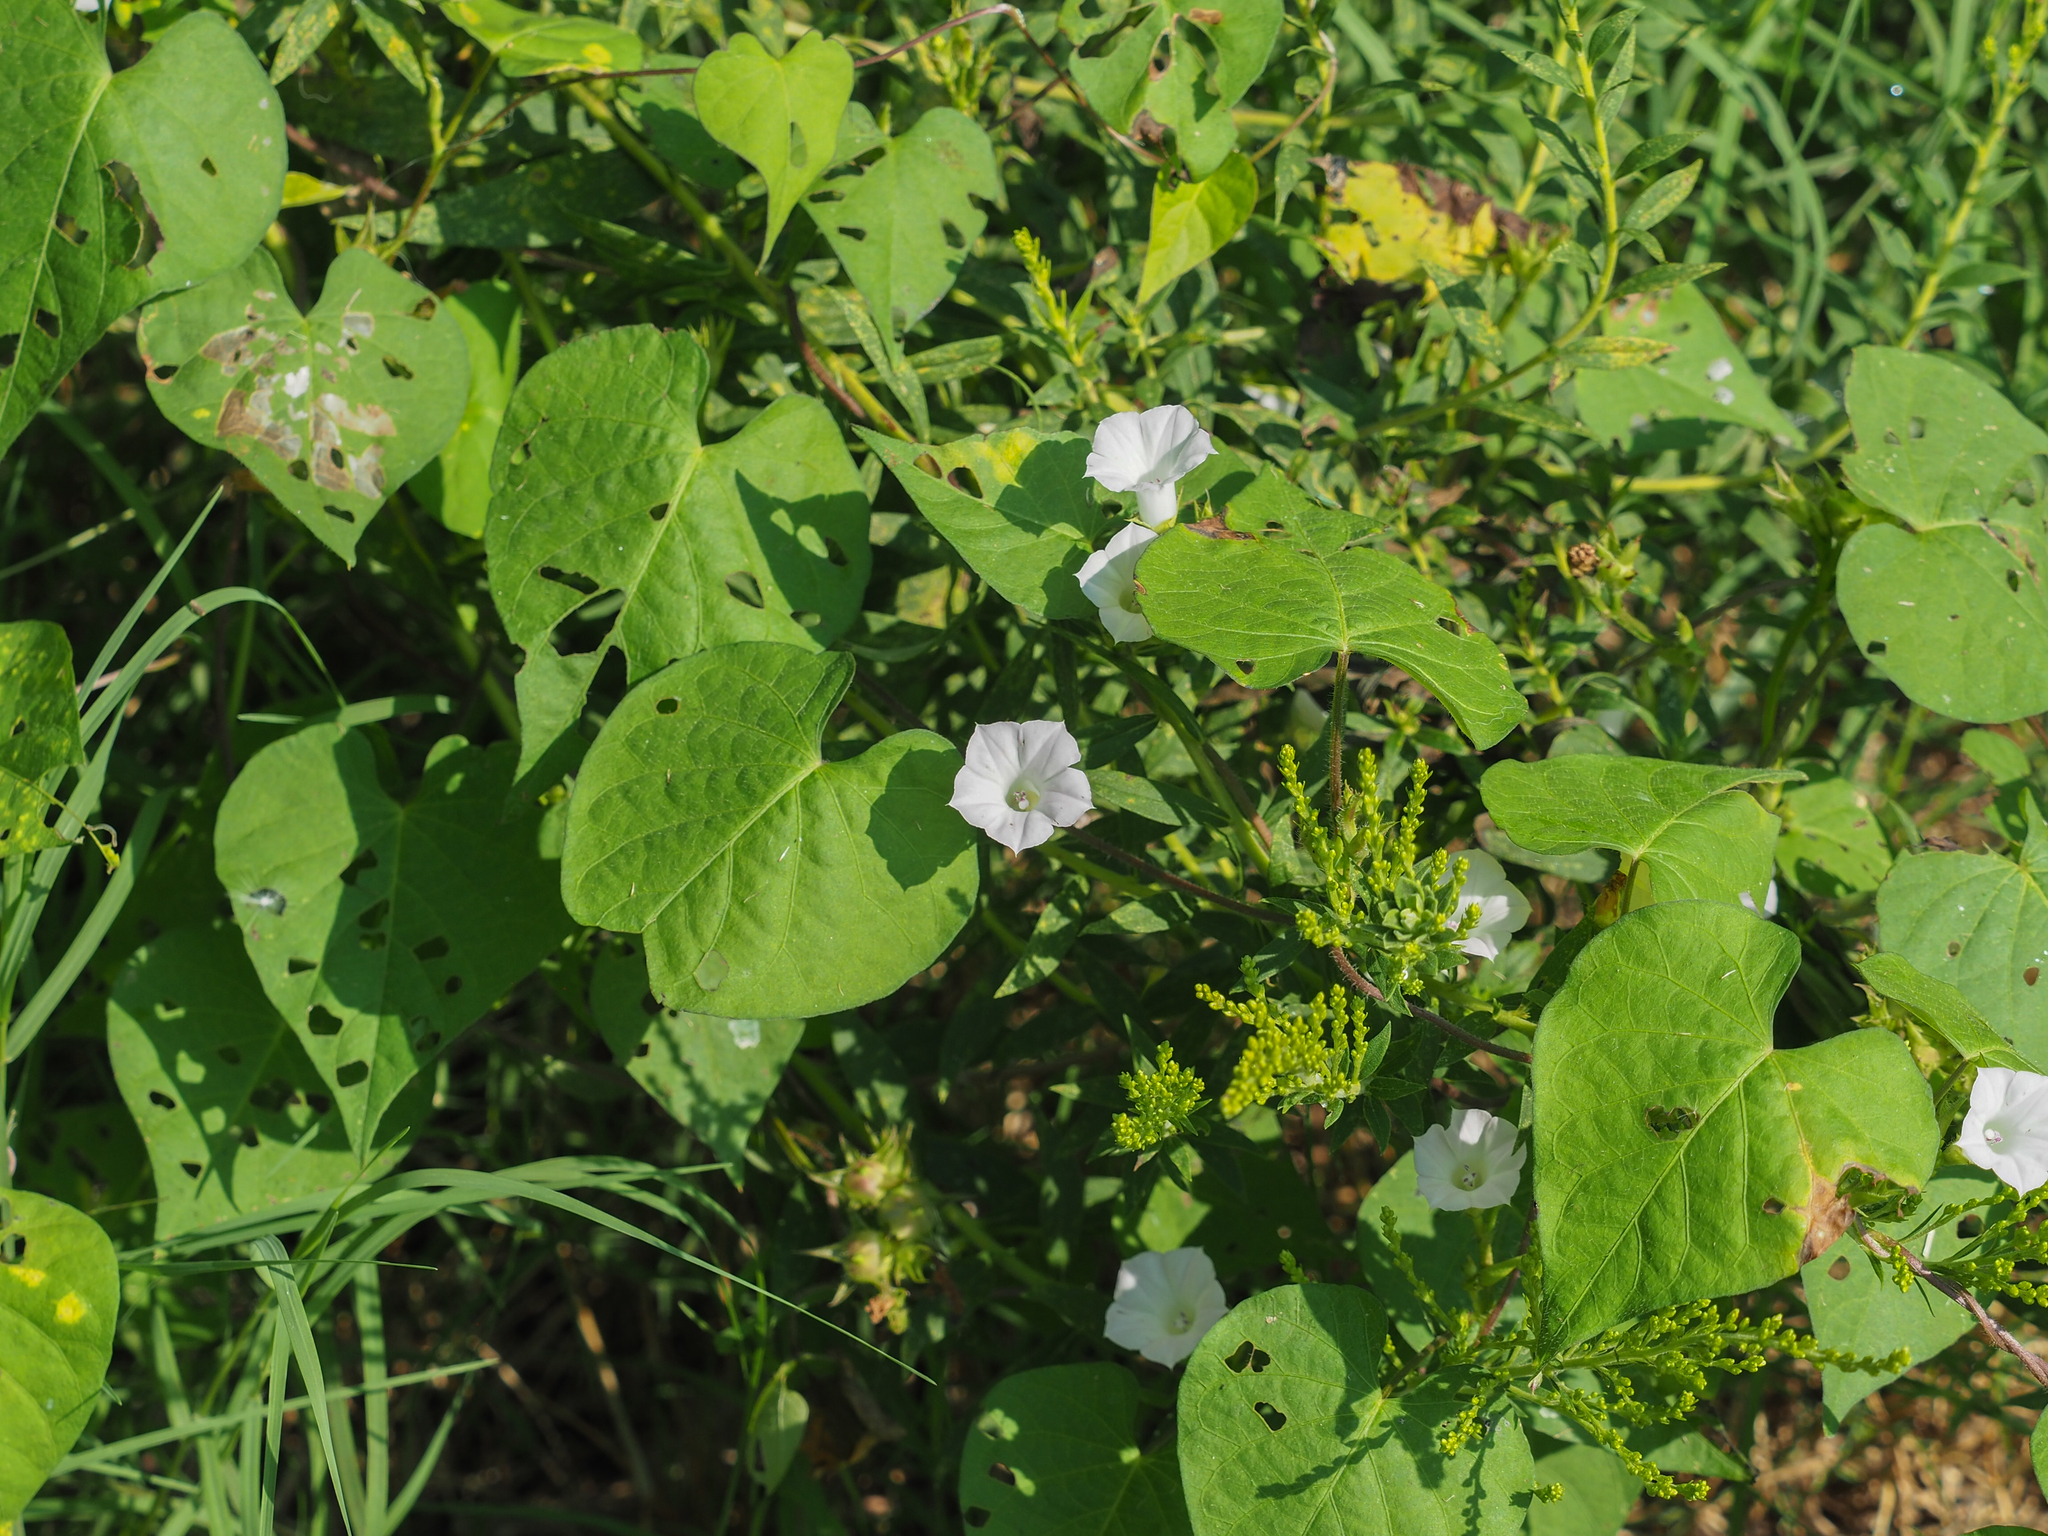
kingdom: Plantae
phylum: Tracheophyta
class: Magnoliopsida
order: Solanales
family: Convolvulaceae
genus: Ipomoea
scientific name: Ipomoea lacunosa
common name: White morning-glory
